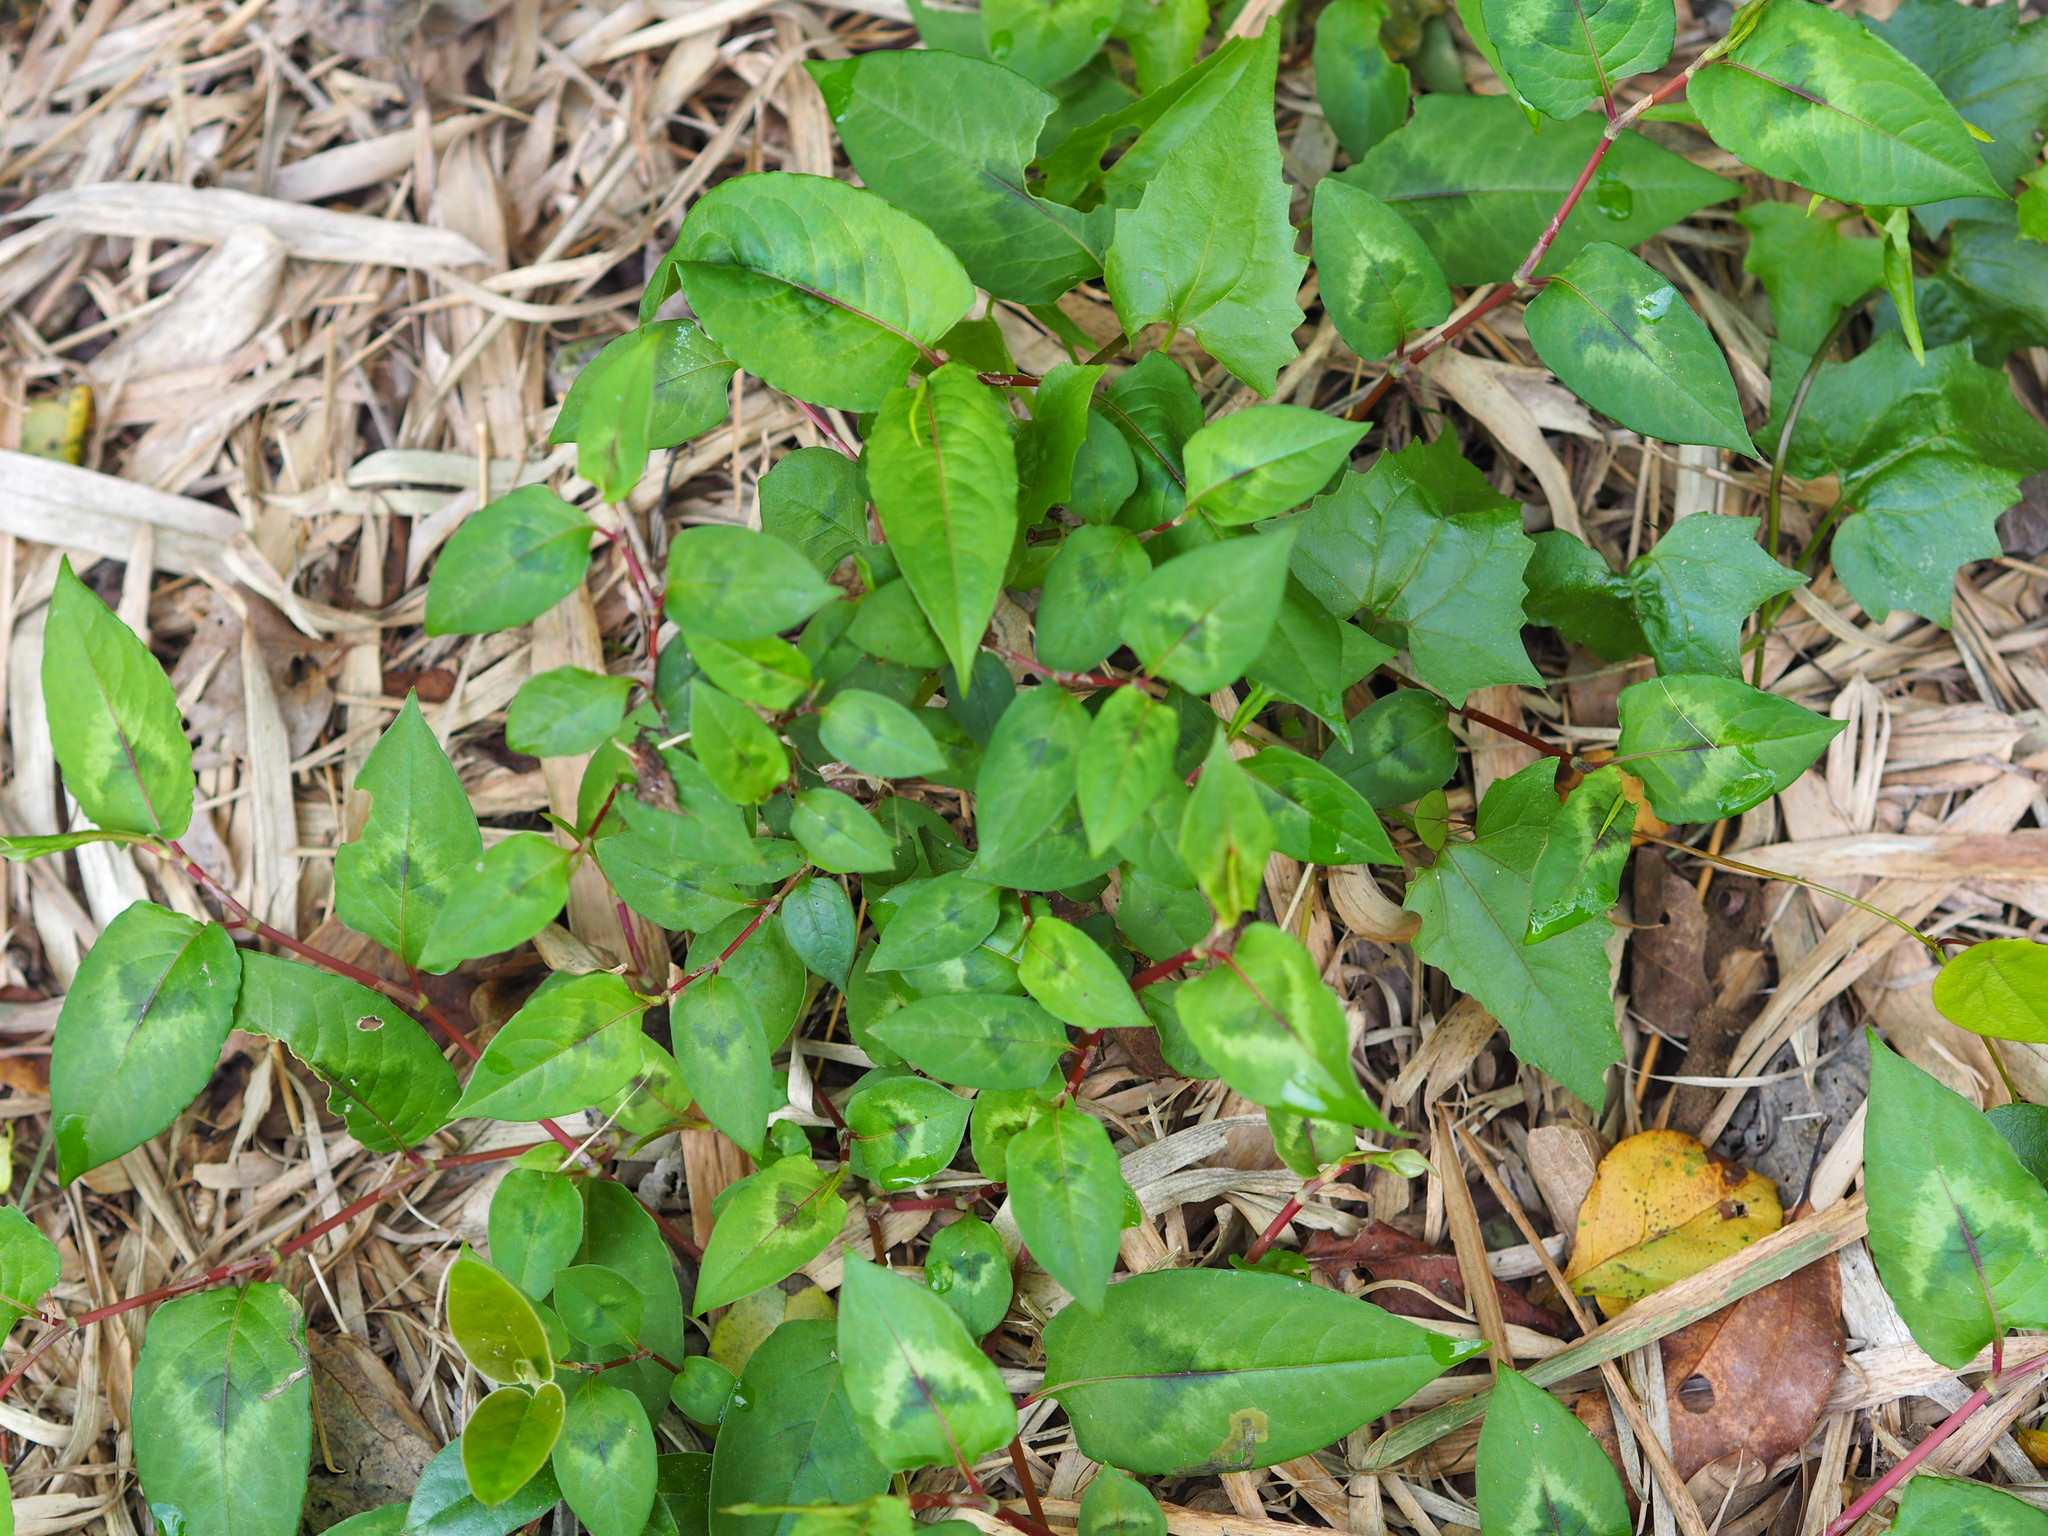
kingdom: Plantae
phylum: Tracheophyta
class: Magnoliopsida
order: Caryophyllales
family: Polygonaceae
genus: Persicaria
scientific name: Persicaria chinensis
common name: Chinese knotweed
